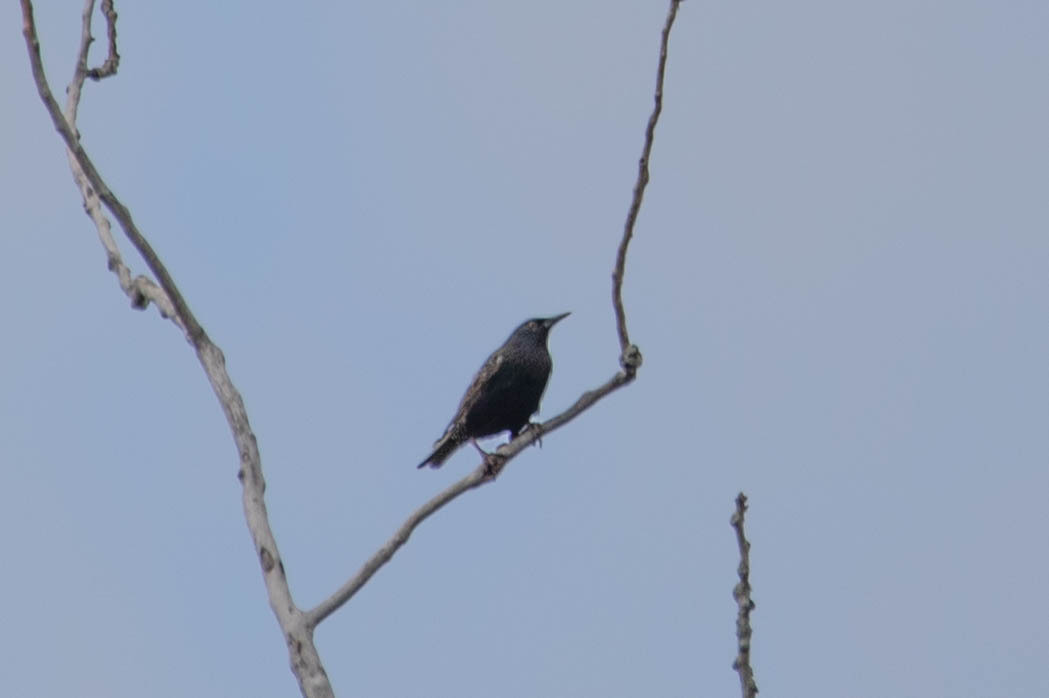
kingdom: Animalia
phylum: Chordata
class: Aves
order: Passeriformes
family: Sturnidae
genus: Sturnus
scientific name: Sturnus vulgaris
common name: Common starling
